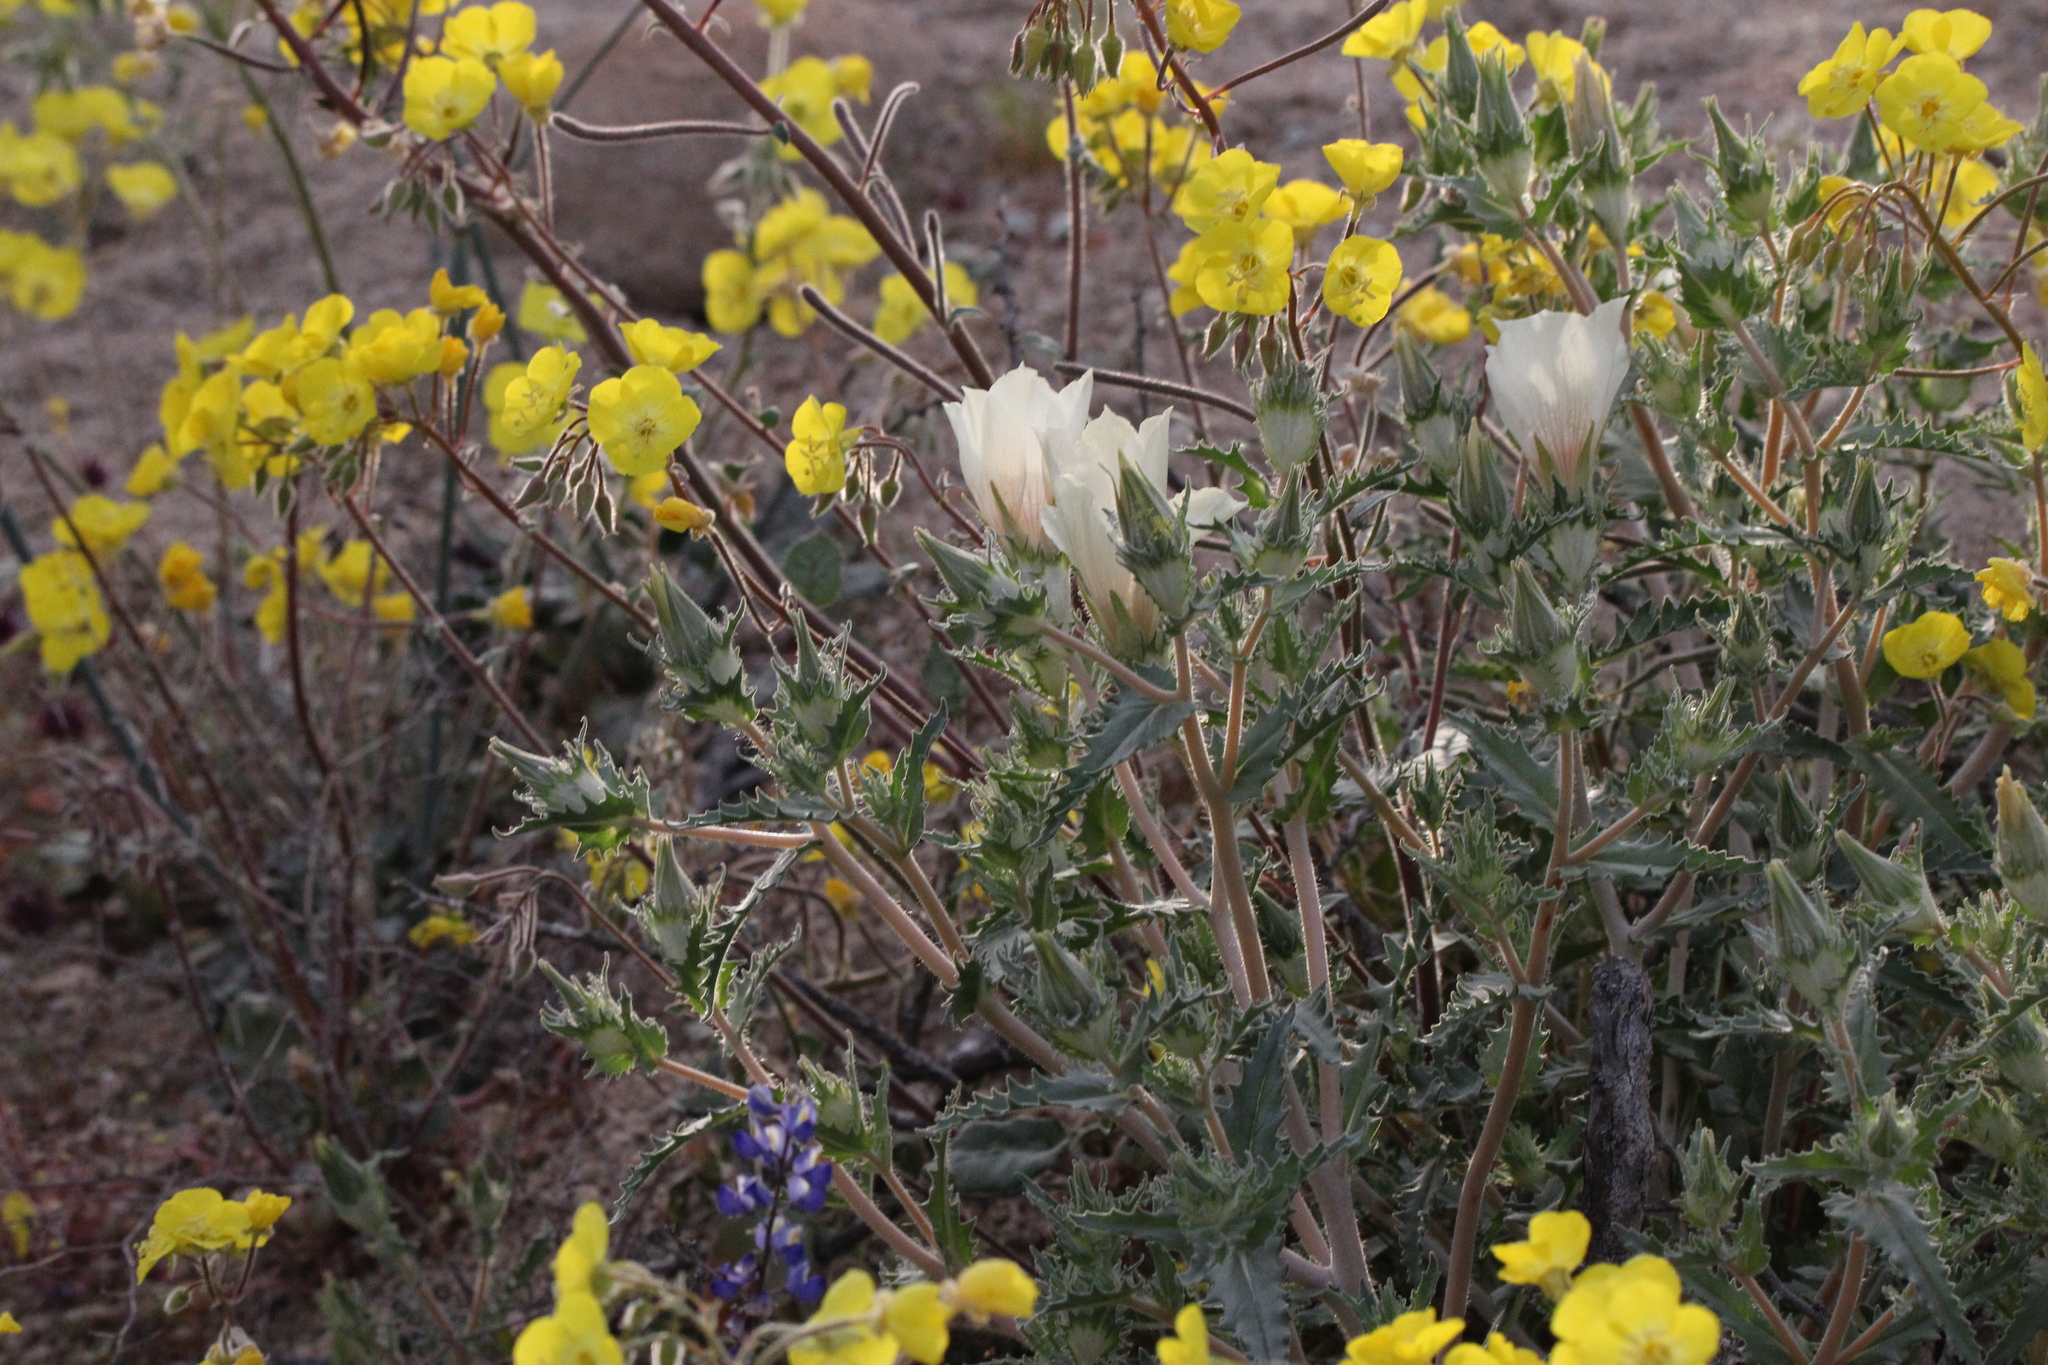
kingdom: Plantae
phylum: Tracheophyta
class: Magnoliopsida
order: Cornales
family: Loasaceae
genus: Mentzelia
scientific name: Mentzelia involucrata
